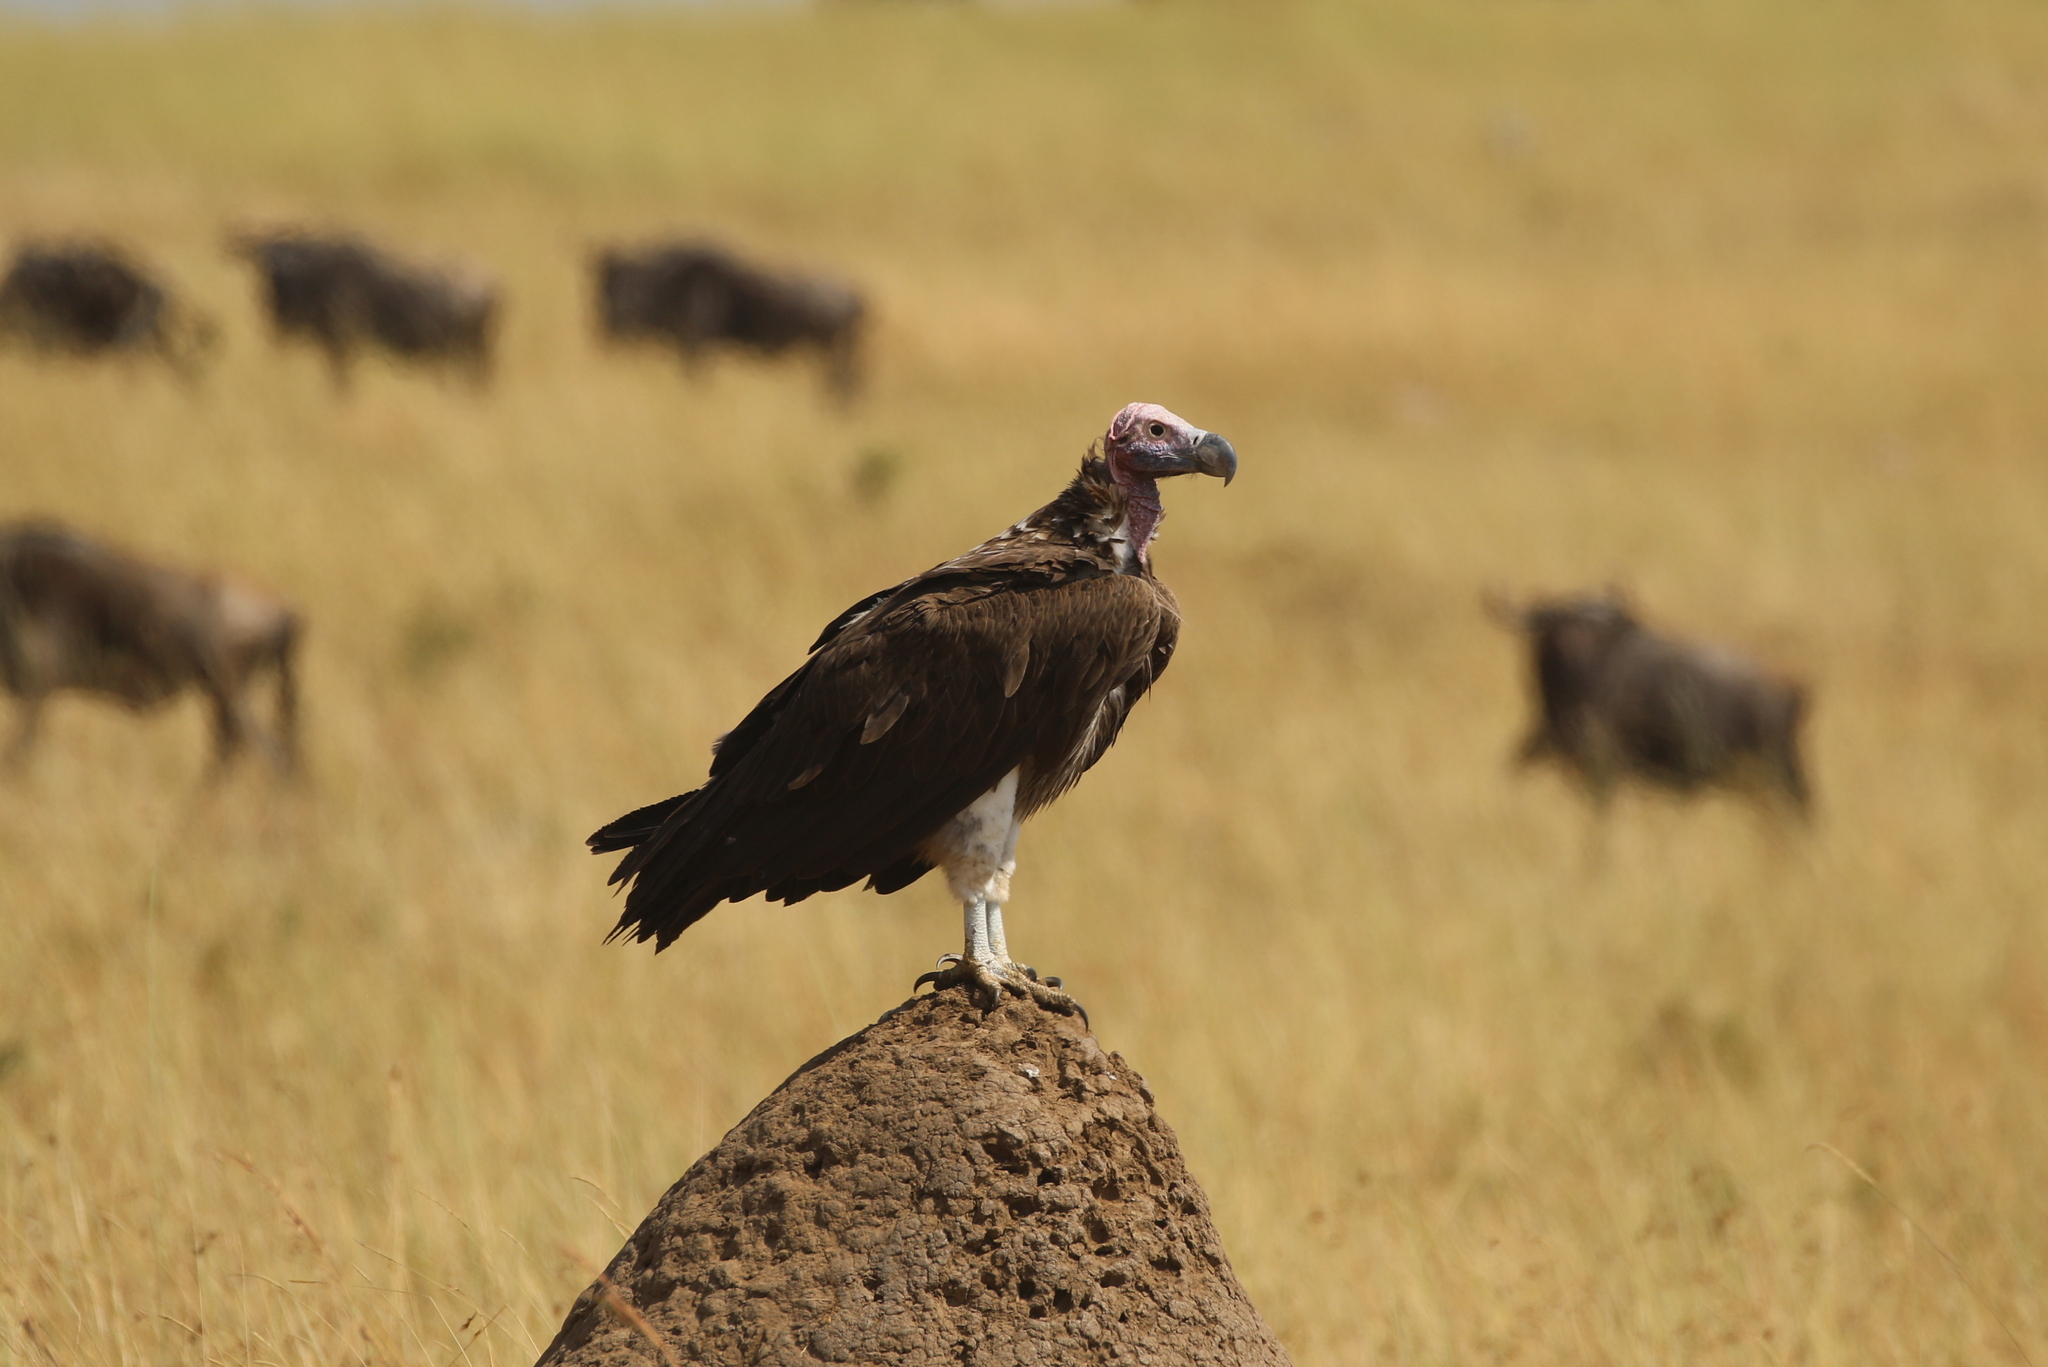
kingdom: Animalia
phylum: Chordata
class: Aves
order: Accipitriformes
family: Accipitridae
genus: Torgos
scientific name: Torgos tracheliotos
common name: Lappet-faced vulture
